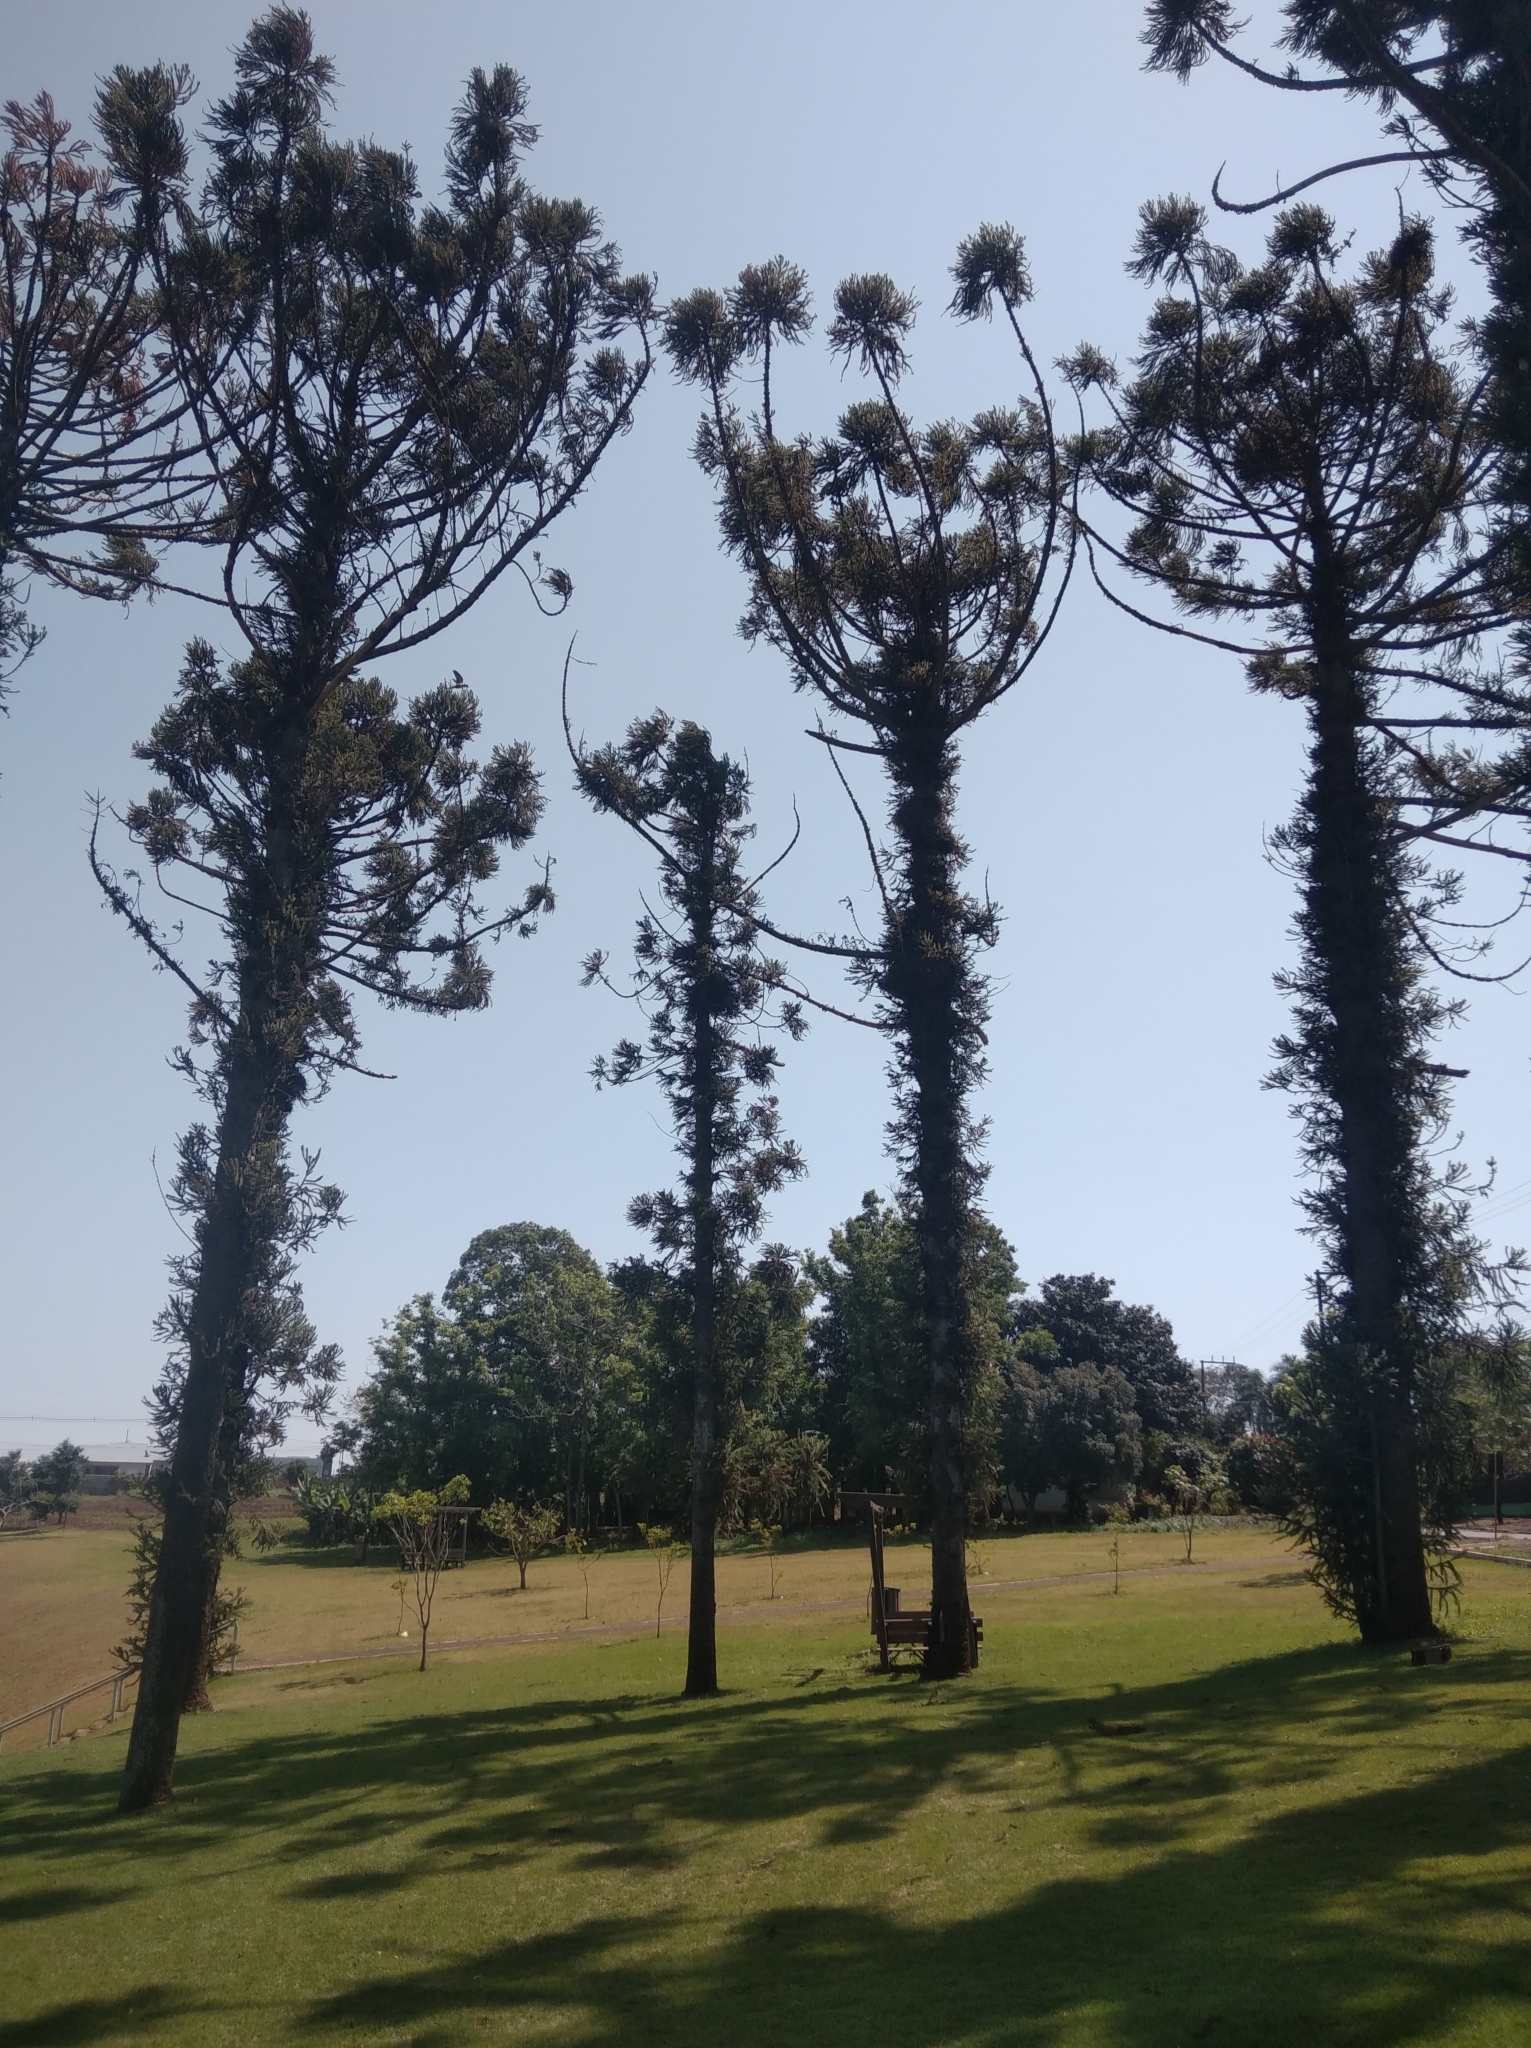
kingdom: Plantae
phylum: Tracheophyta
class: Pinopsida
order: Pinales
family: Araucariaceae
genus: Araucaria
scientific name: Araucaria angustifolia
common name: Candelabra tree
